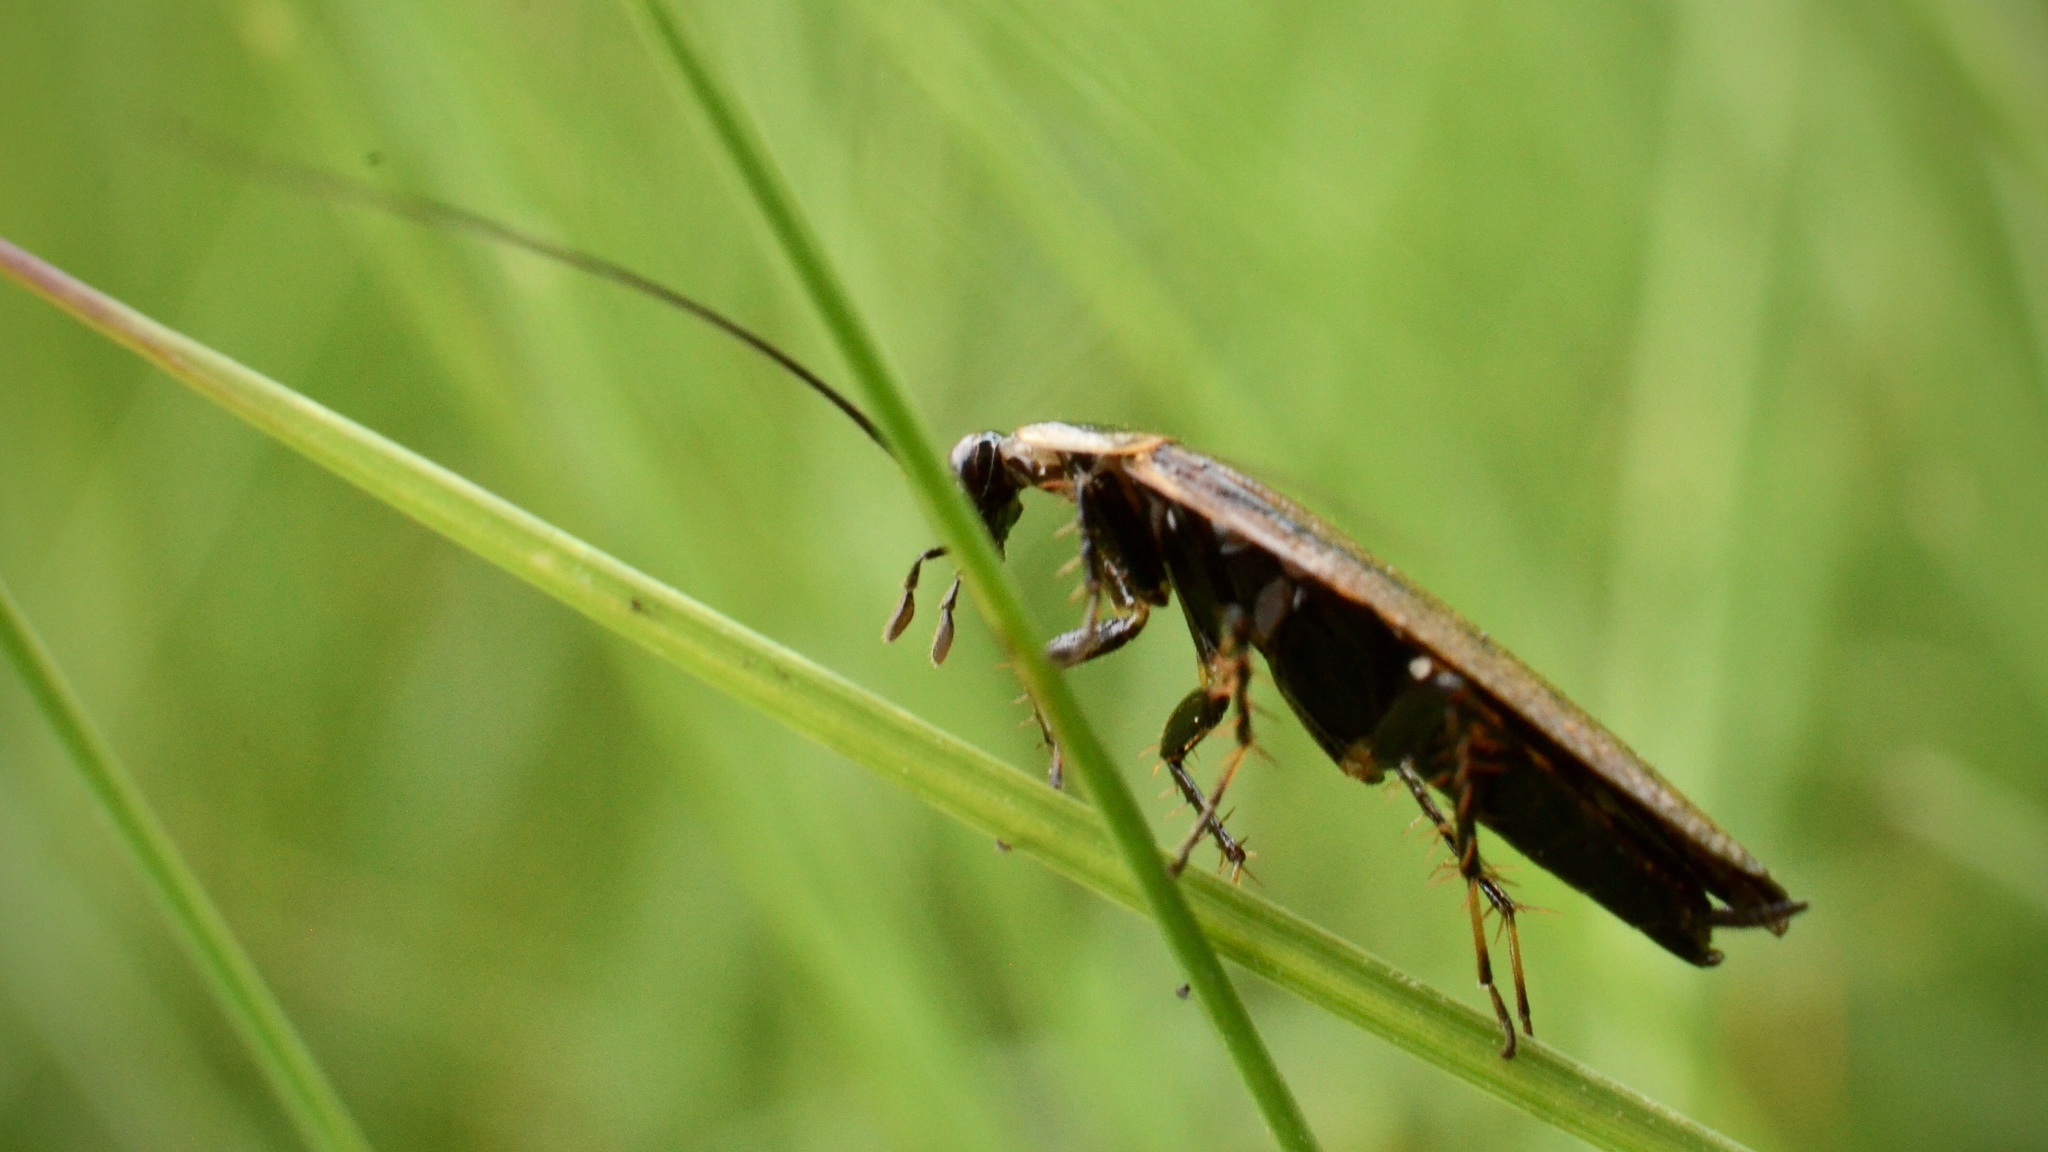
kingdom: Animalia
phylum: Arthropoda
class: Insecta
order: Blattodea
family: Ectobiidae
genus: Ectobius
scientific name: Ectobius lapponicus
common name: Dusky cockroach
